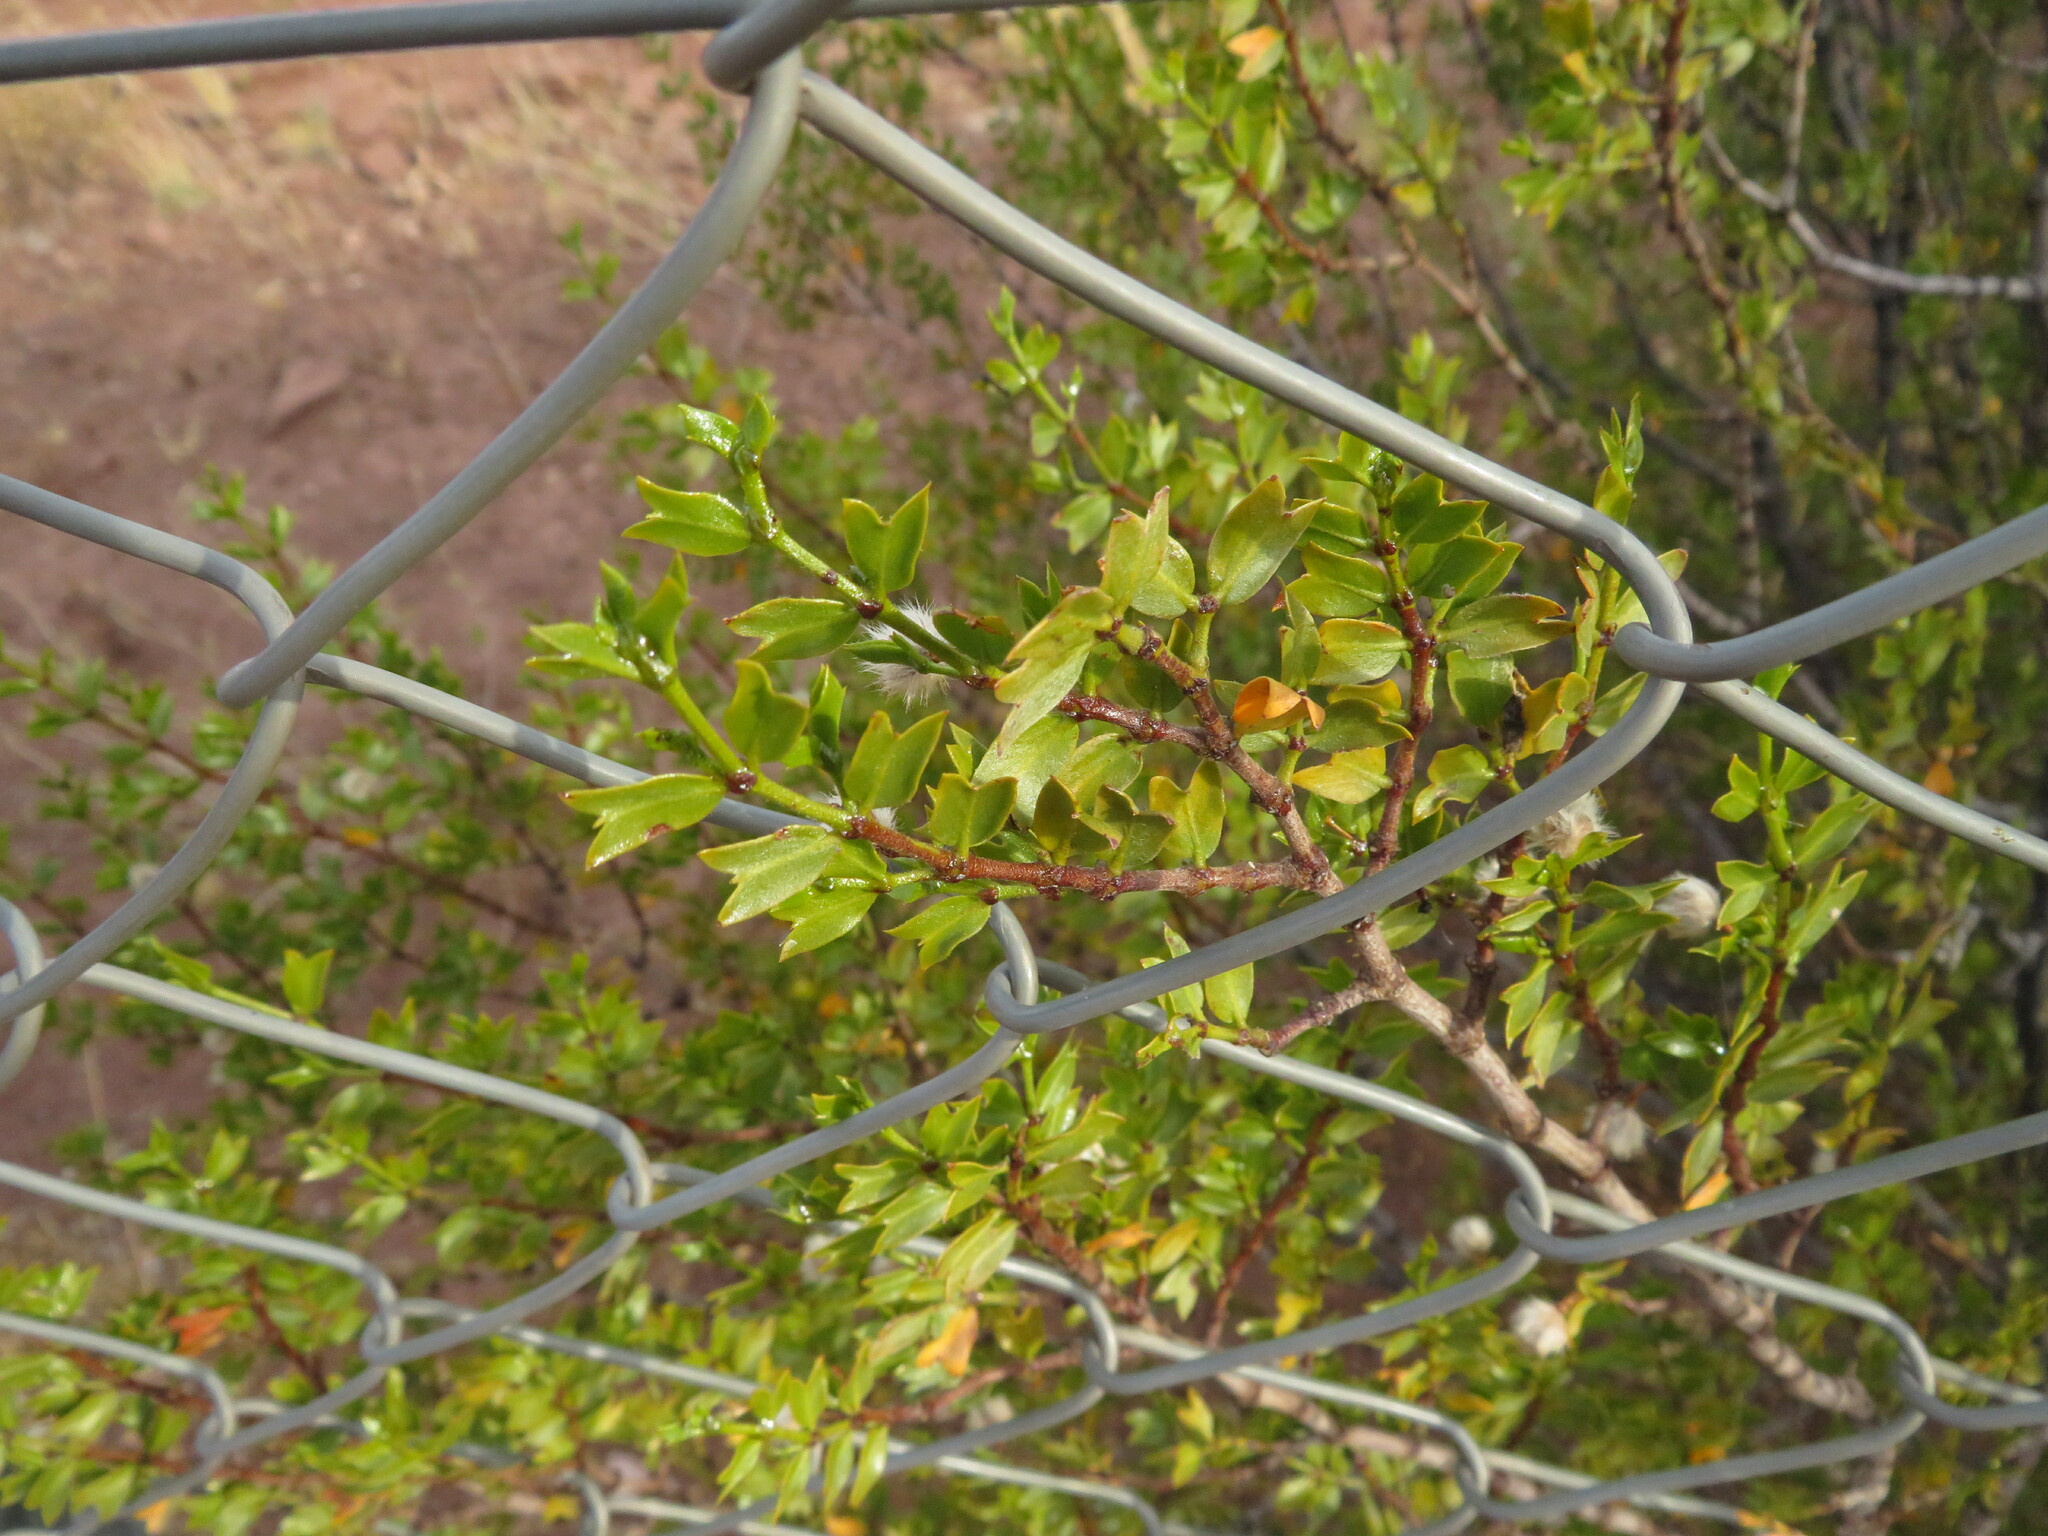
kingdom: Plantae
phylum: Tracheophyta
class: Magnoliopsida
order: Zygophyllales
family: Zygophyllaceae
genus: Larrea
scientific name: Larrea cuneifolia
